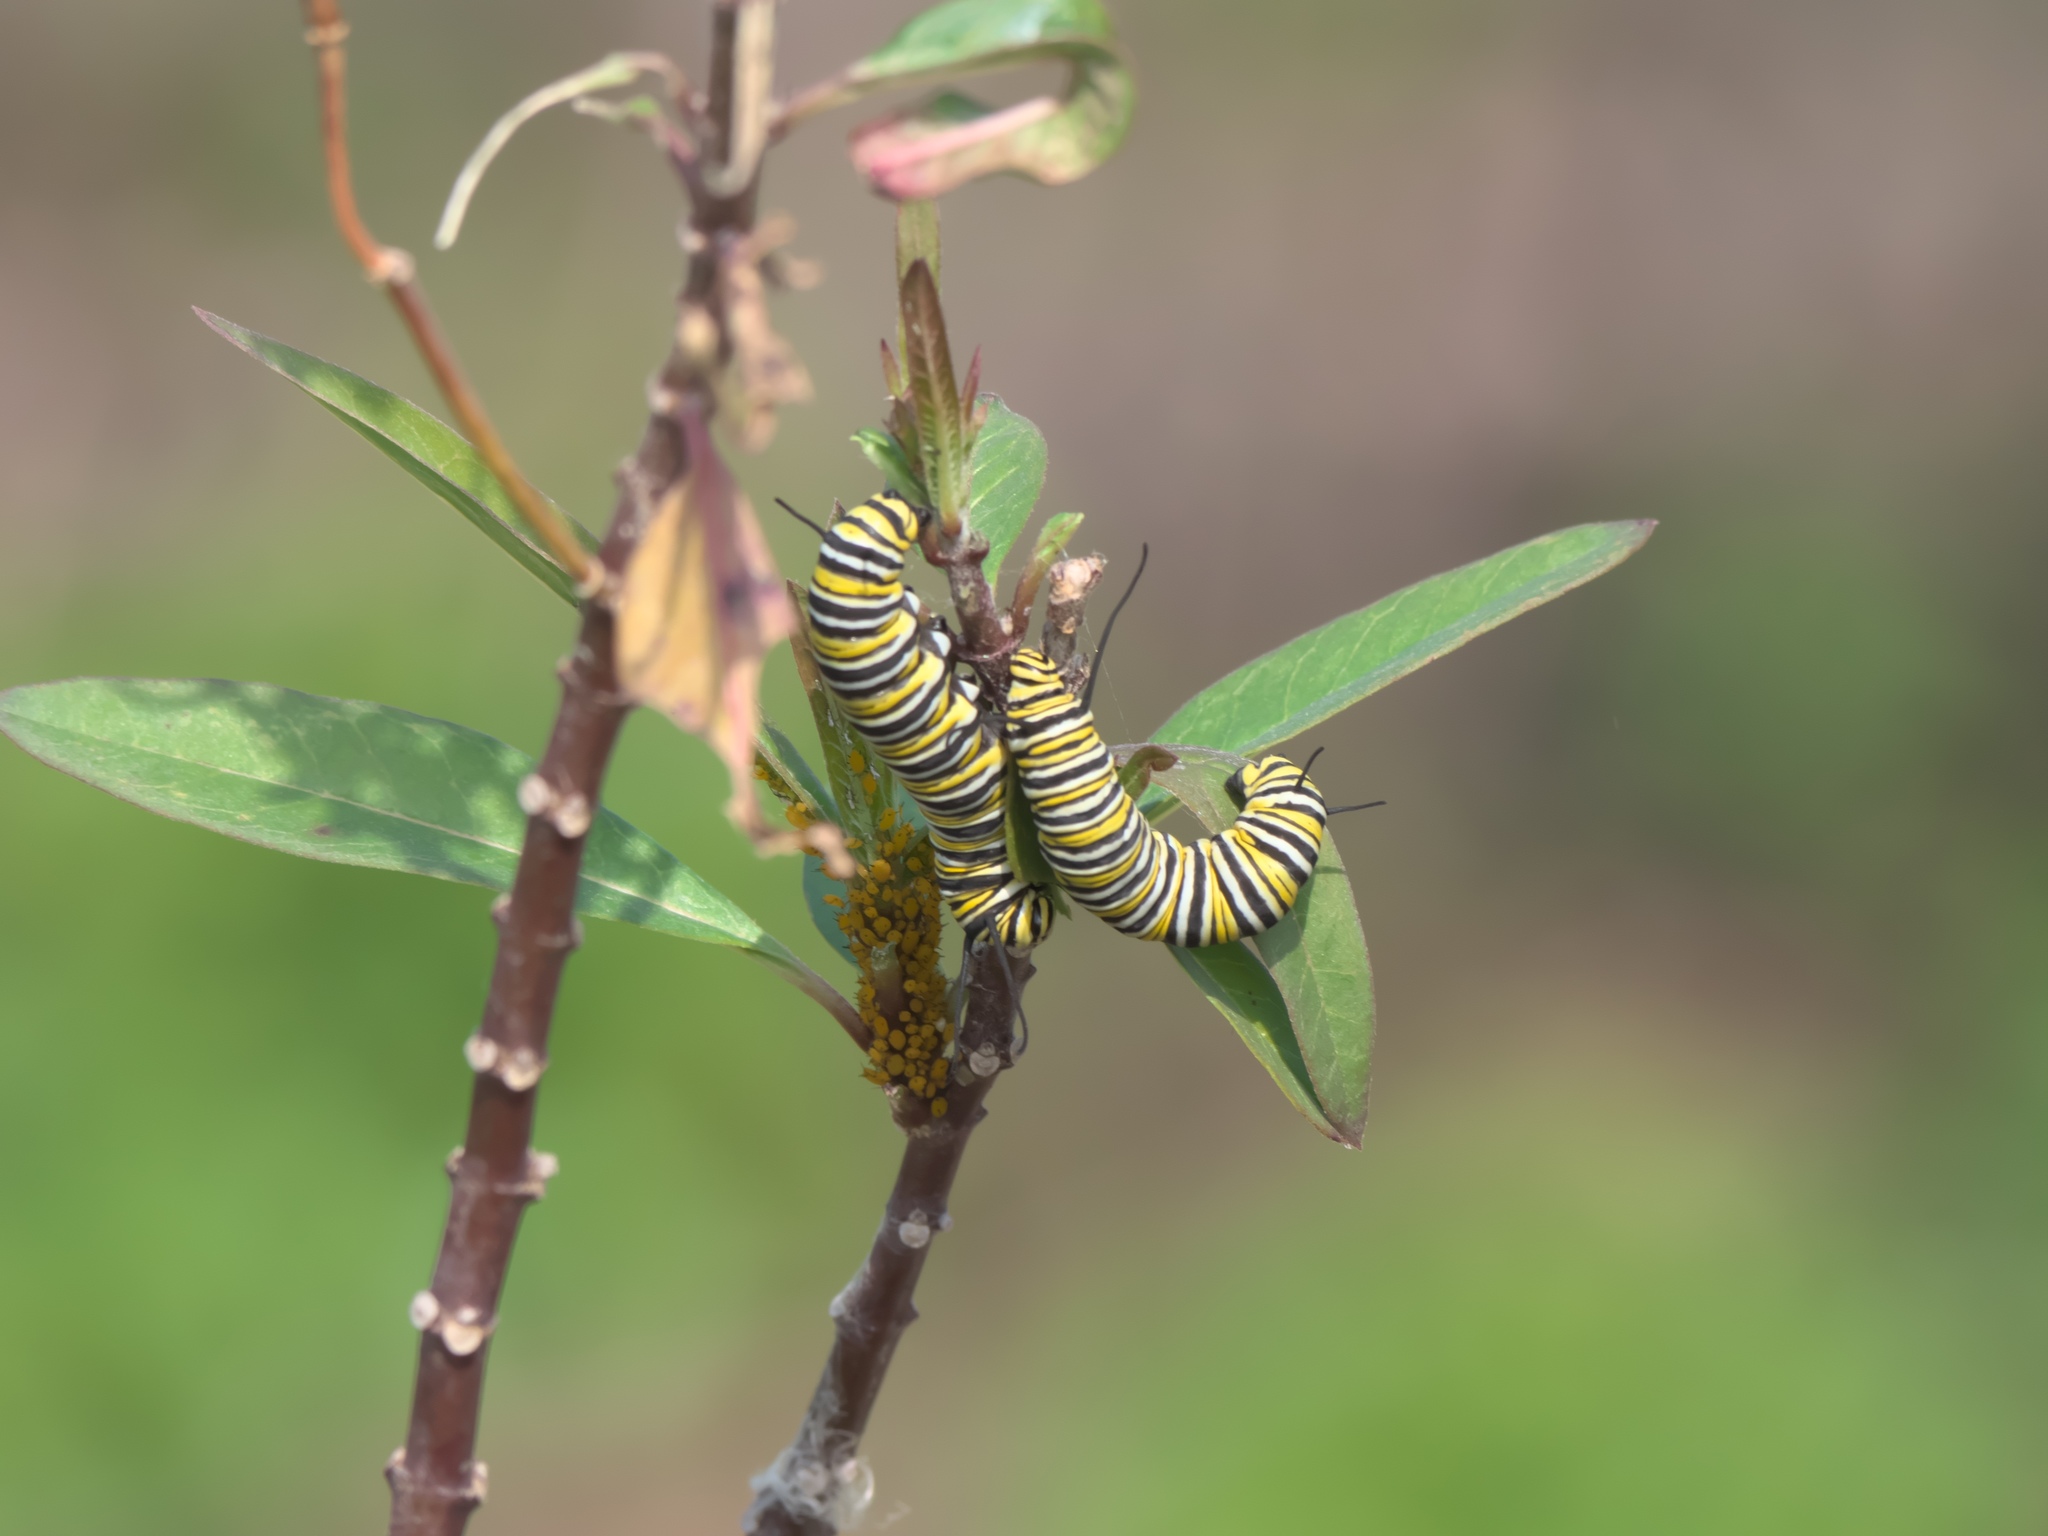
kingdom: Animalia
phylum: Arthropoda
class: Insecta
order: Lepidoptera
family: Nymphalidae
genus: Danaus
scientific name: Danaus plexippus
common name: Monarch
